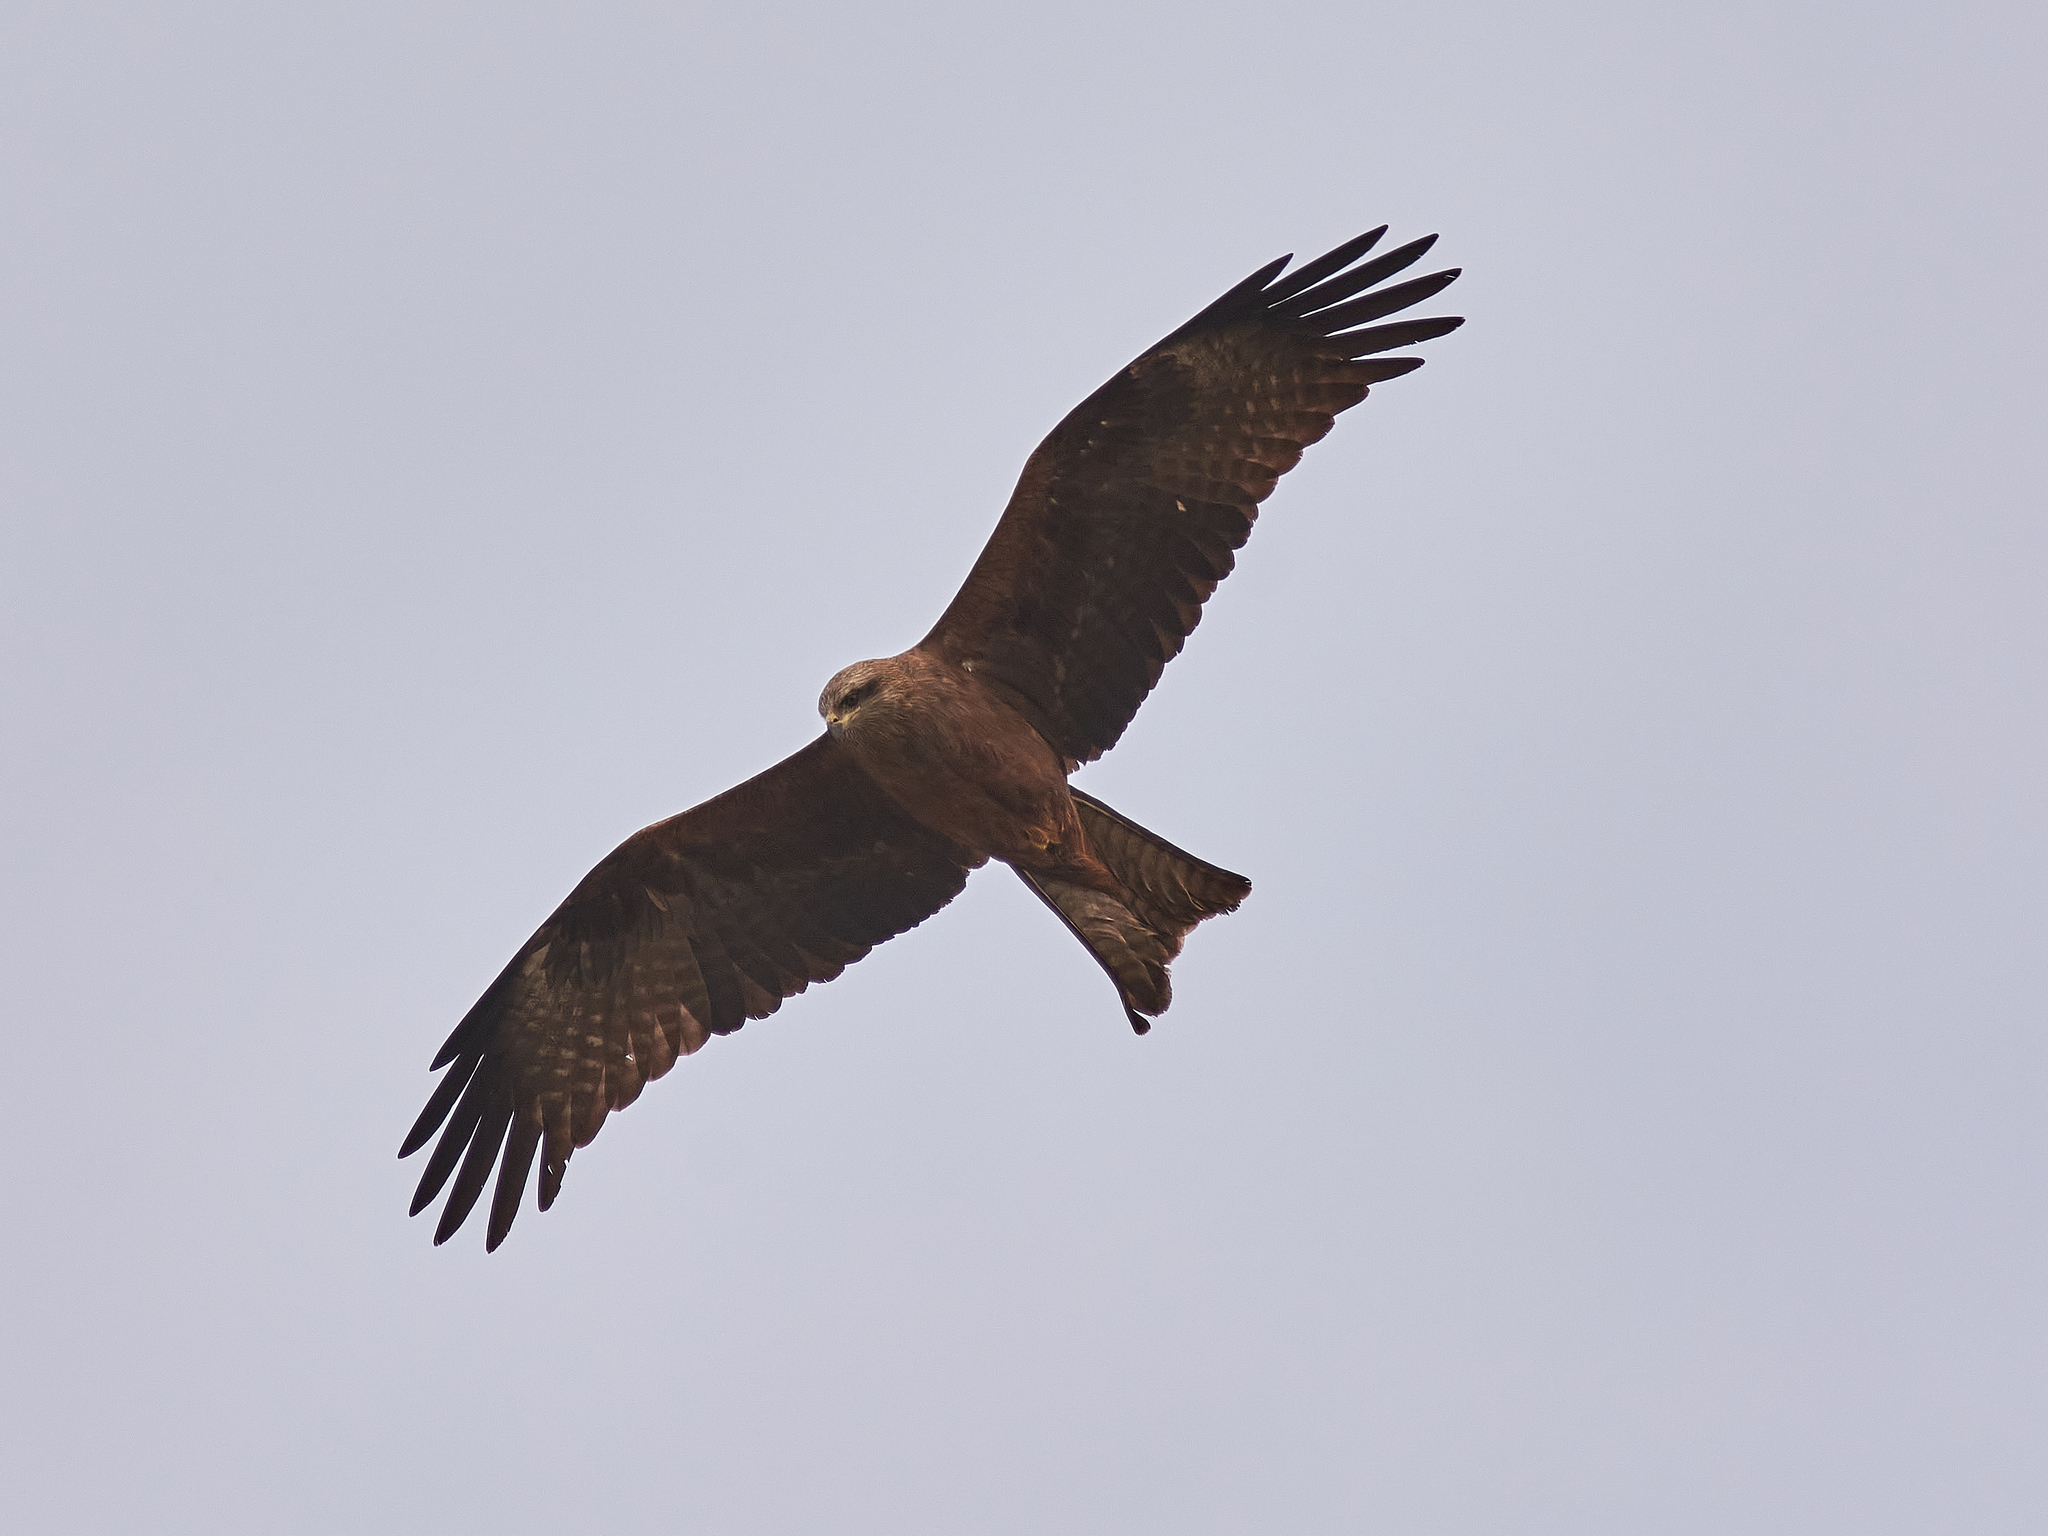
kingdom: Animalia
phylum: Chordata
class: Aves
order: Accipitriformes
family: Accipitridae
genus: Milvus
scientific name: Milvus migrans
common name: Black kite
